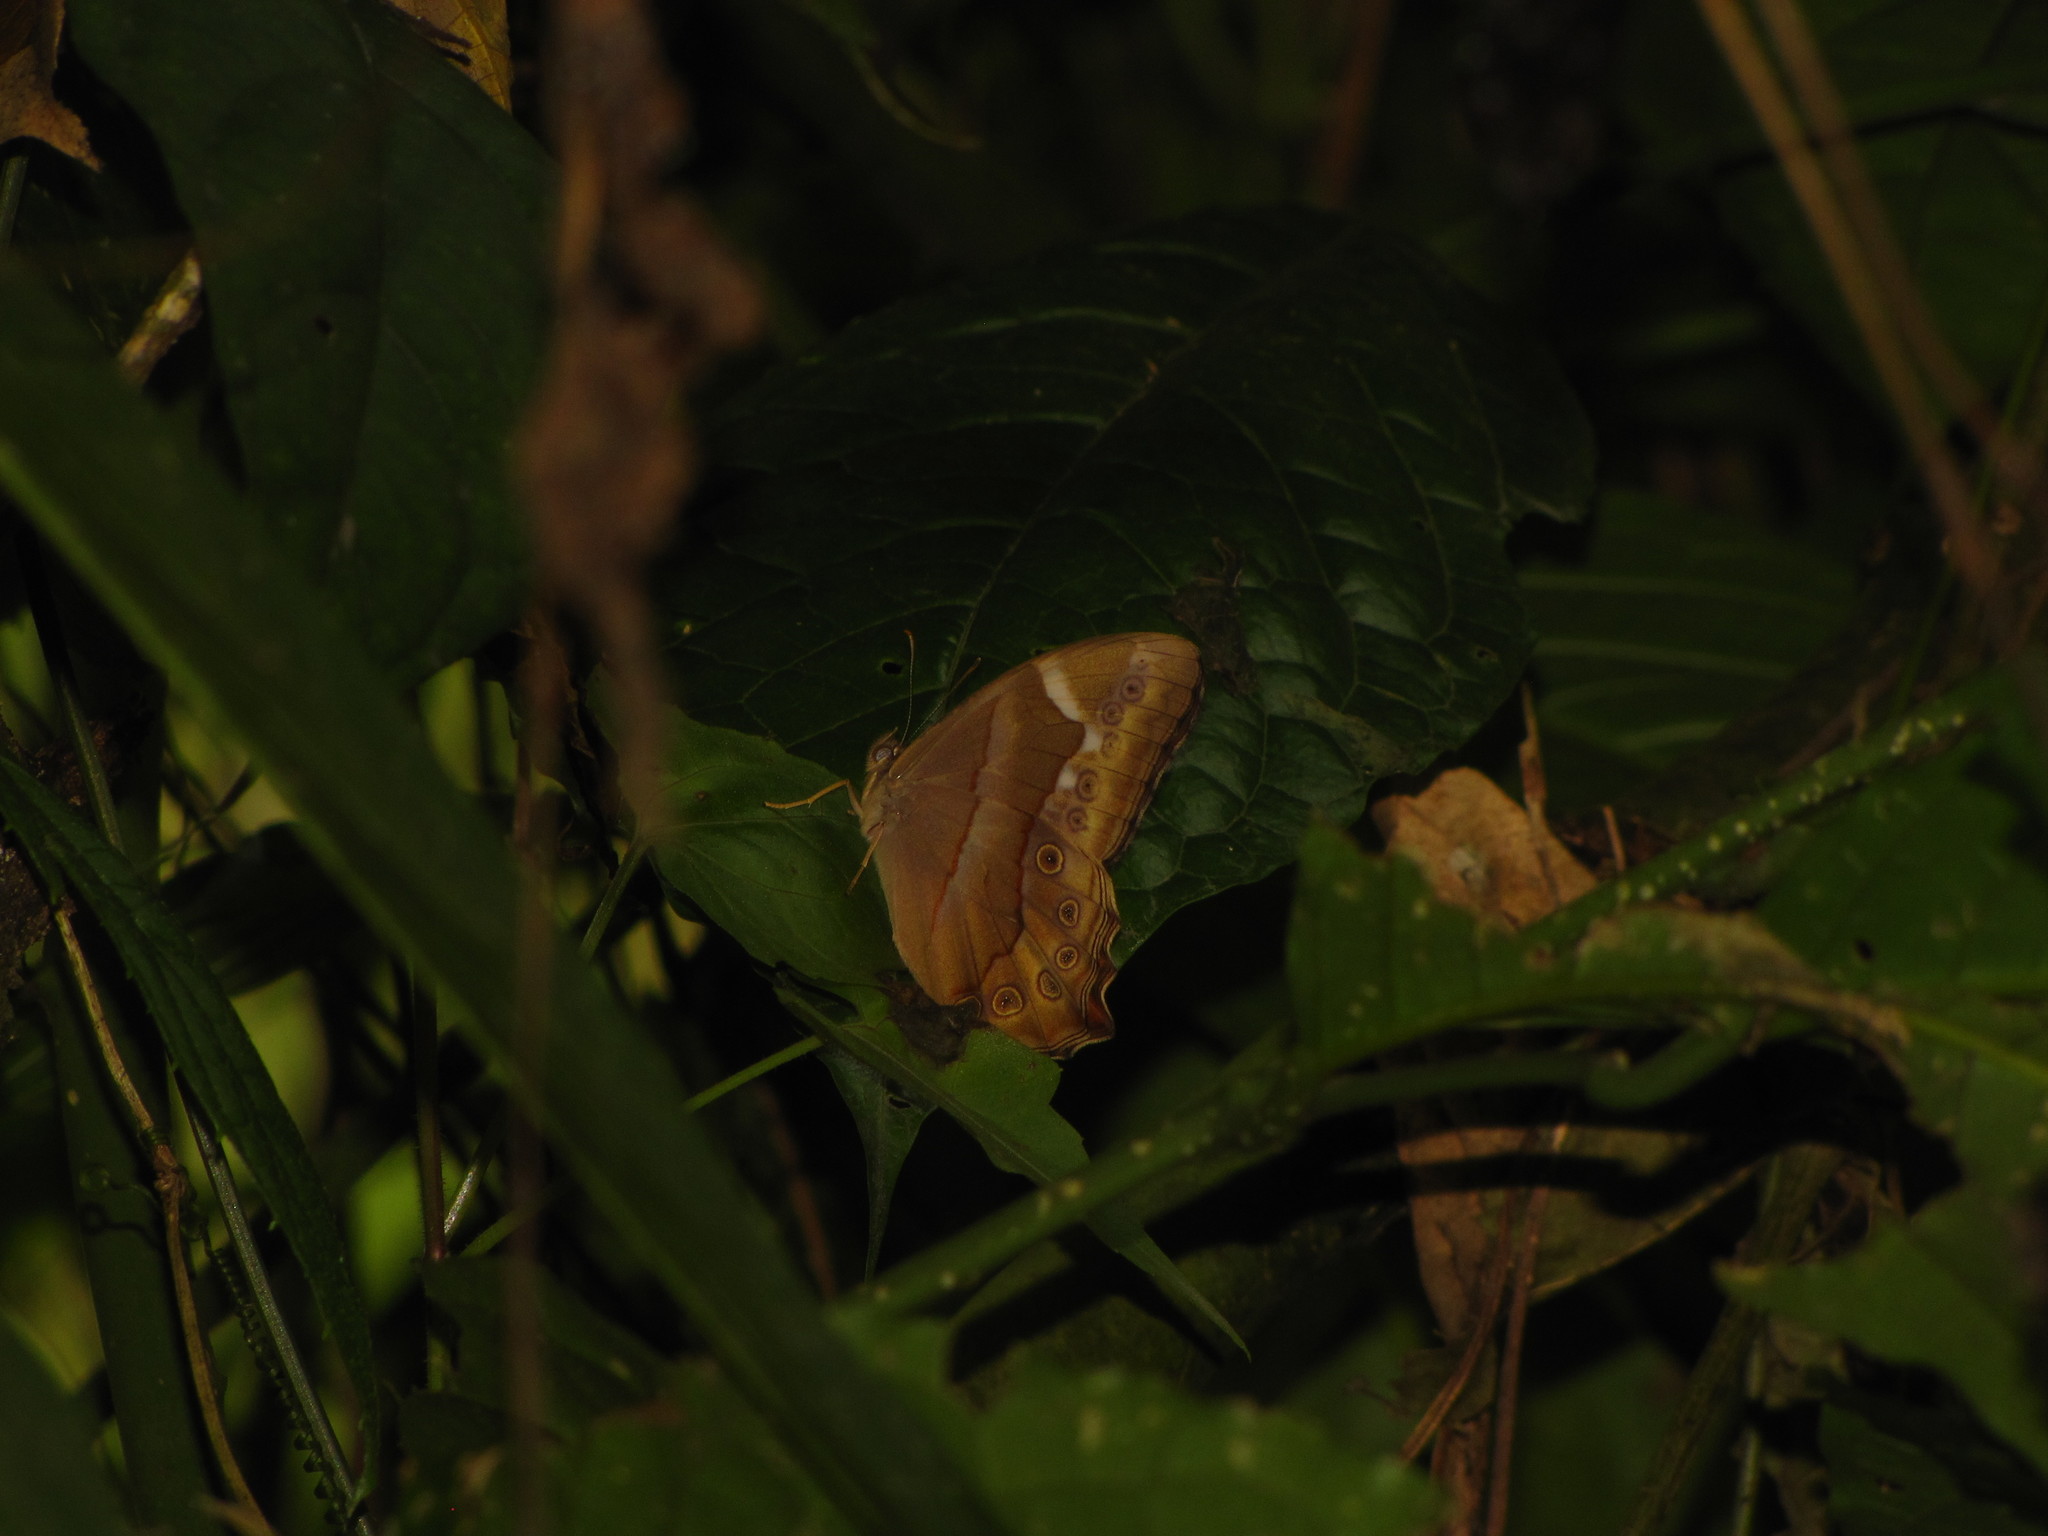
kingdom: Animalia
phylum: Arthropoda
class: Insecta
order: Lepidoptera
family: Nymphalidae
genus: Lethe
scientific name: Lethe mekara
